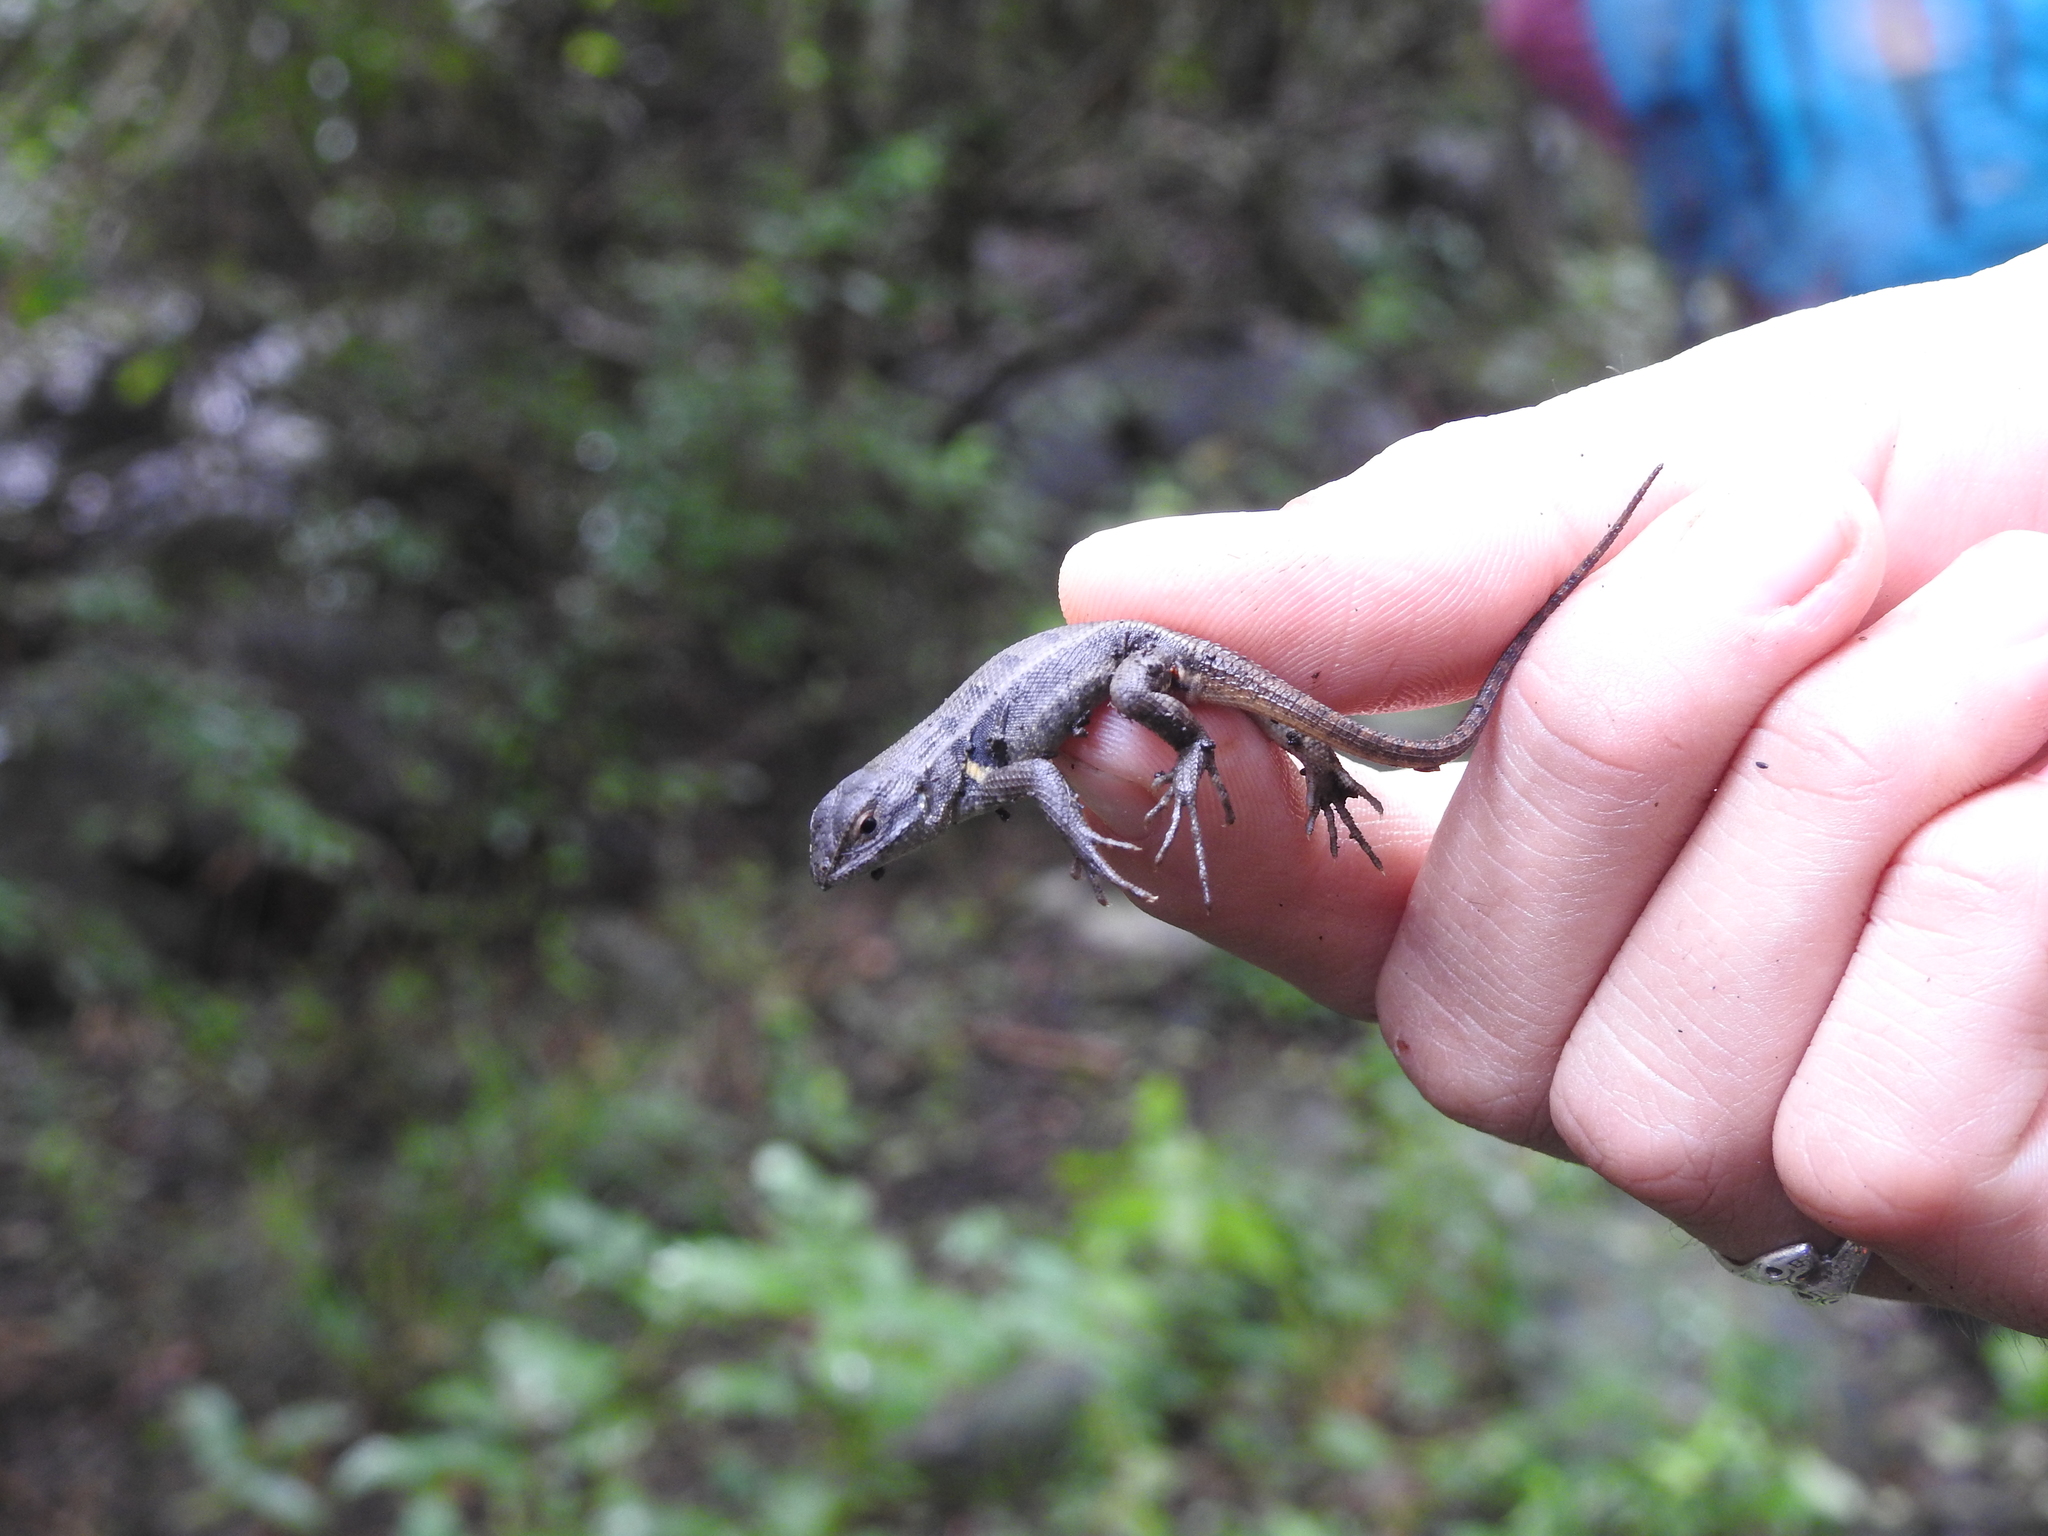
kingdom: Animalia
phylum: Chordata
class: Squamata
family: Phrynosomatidae
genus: Sceloporus
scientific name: Sceloporus variabilis
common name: Rosebelly lizard
